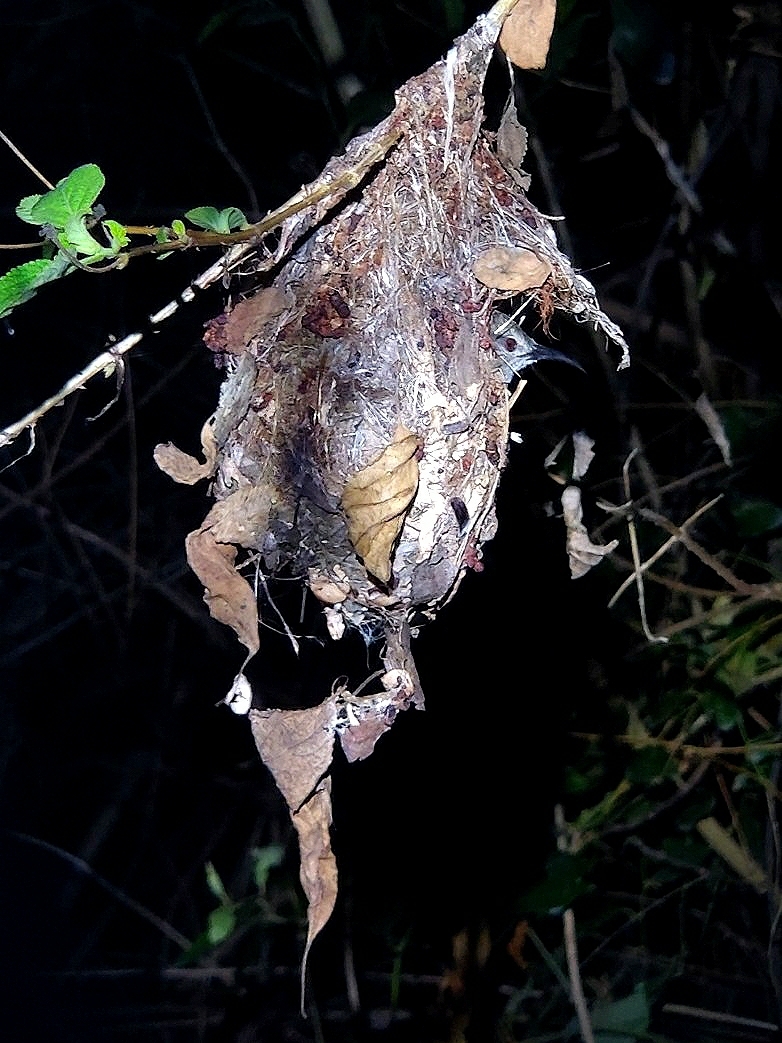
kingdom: Animalia
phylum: Chordata
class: Aves
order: Passeriformes
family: Nectariniidae
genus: Leptocoma
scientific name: Leptocoma zeylonica
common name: Purple-rumped sunbird
